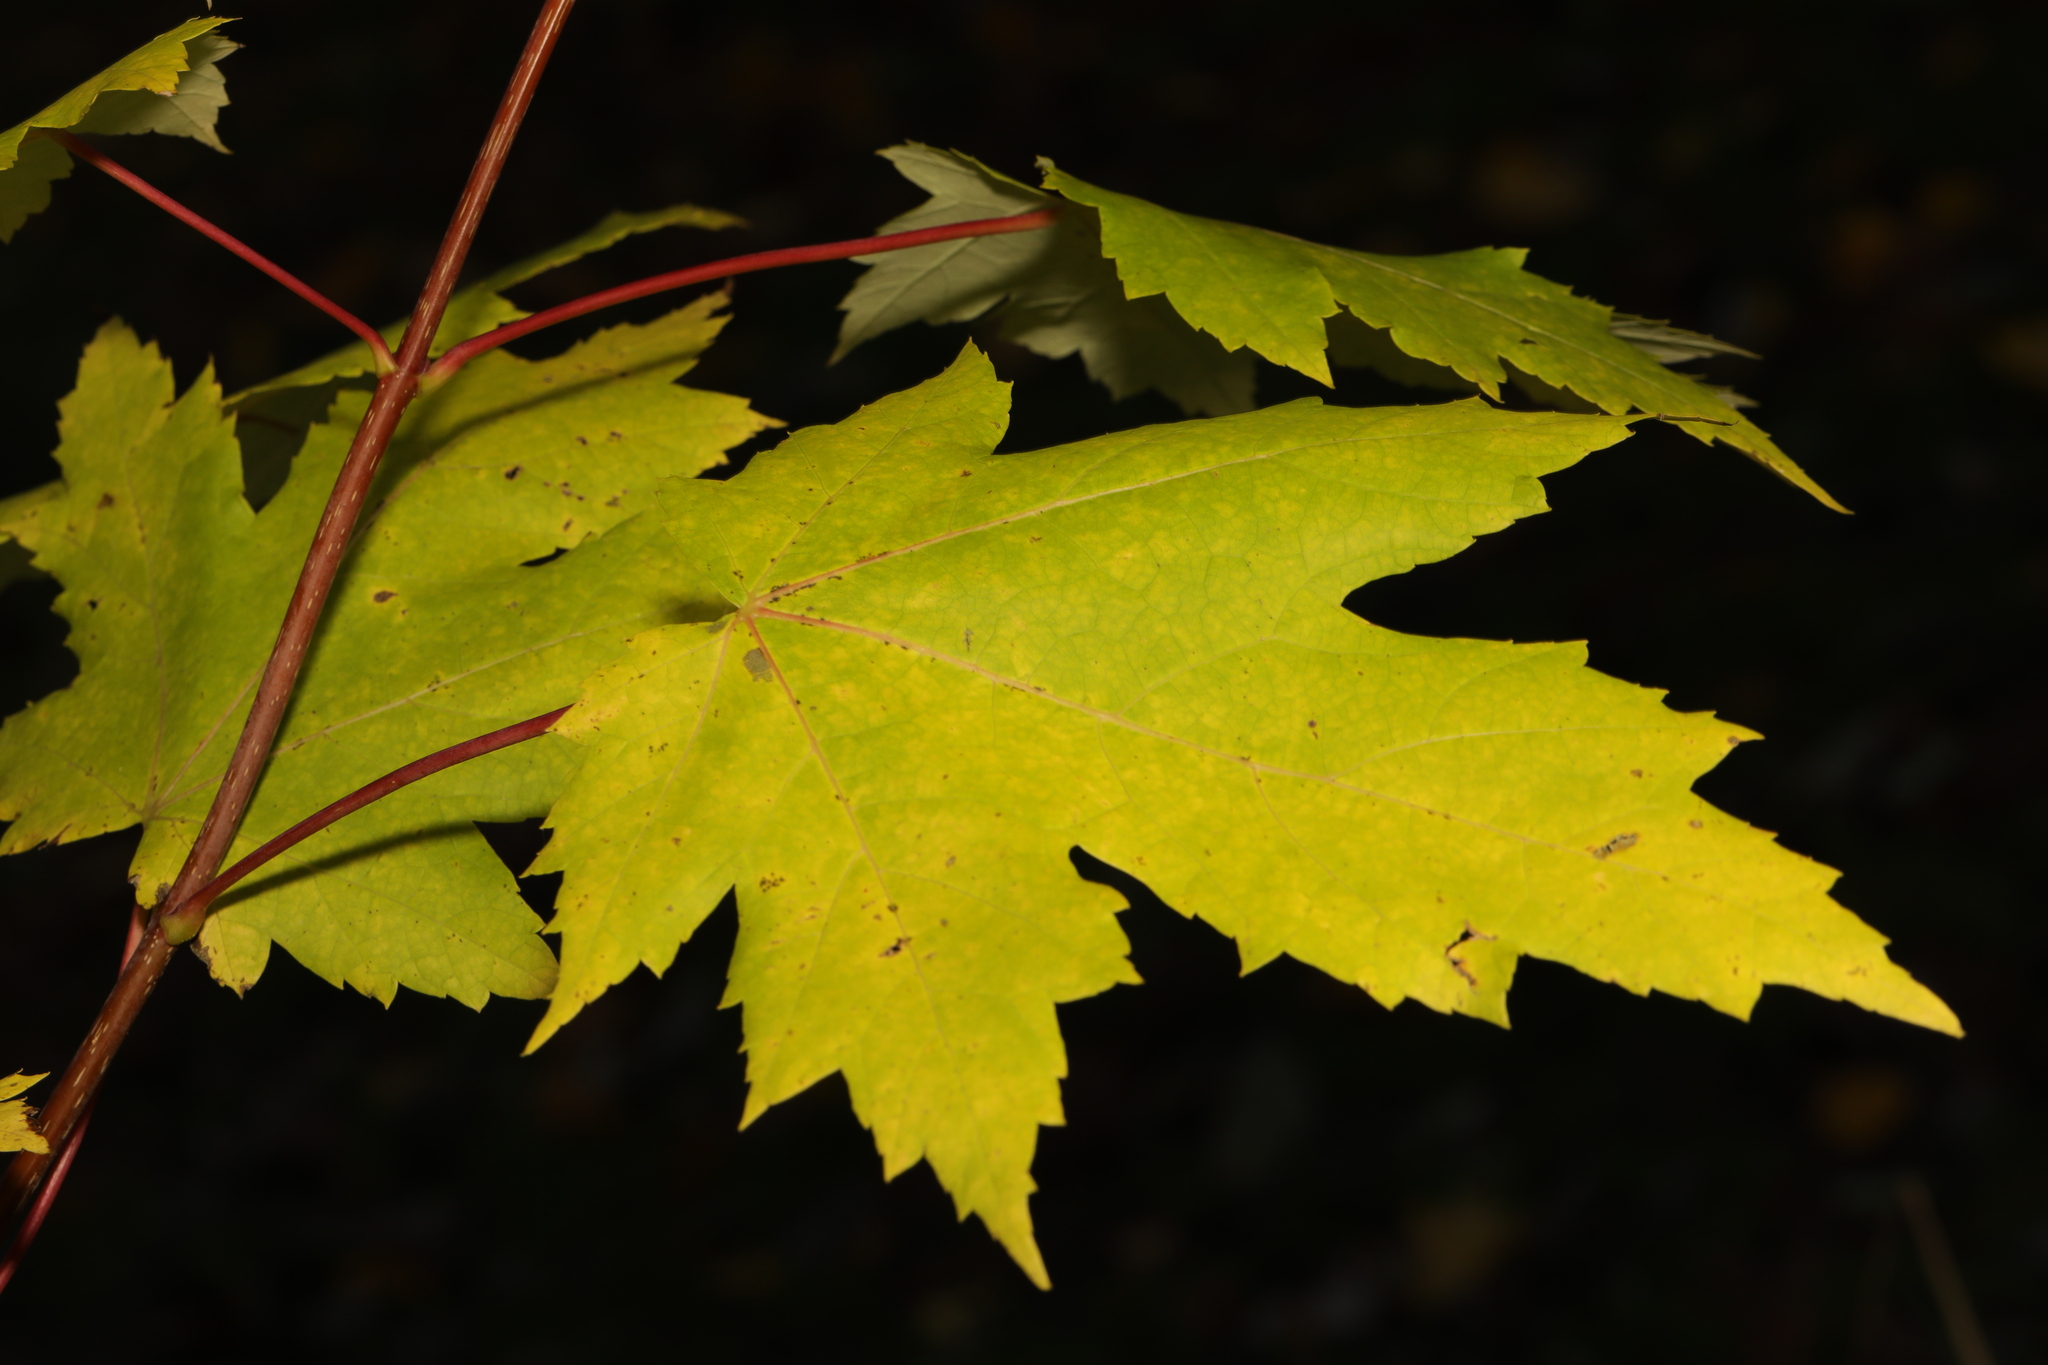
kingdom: Plantae
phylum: Tracheophyta
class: Magnoliopsida
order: Sapindales
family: Sapindaceae
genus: Acer
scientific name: Acer saccharinum
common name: Silver maple
